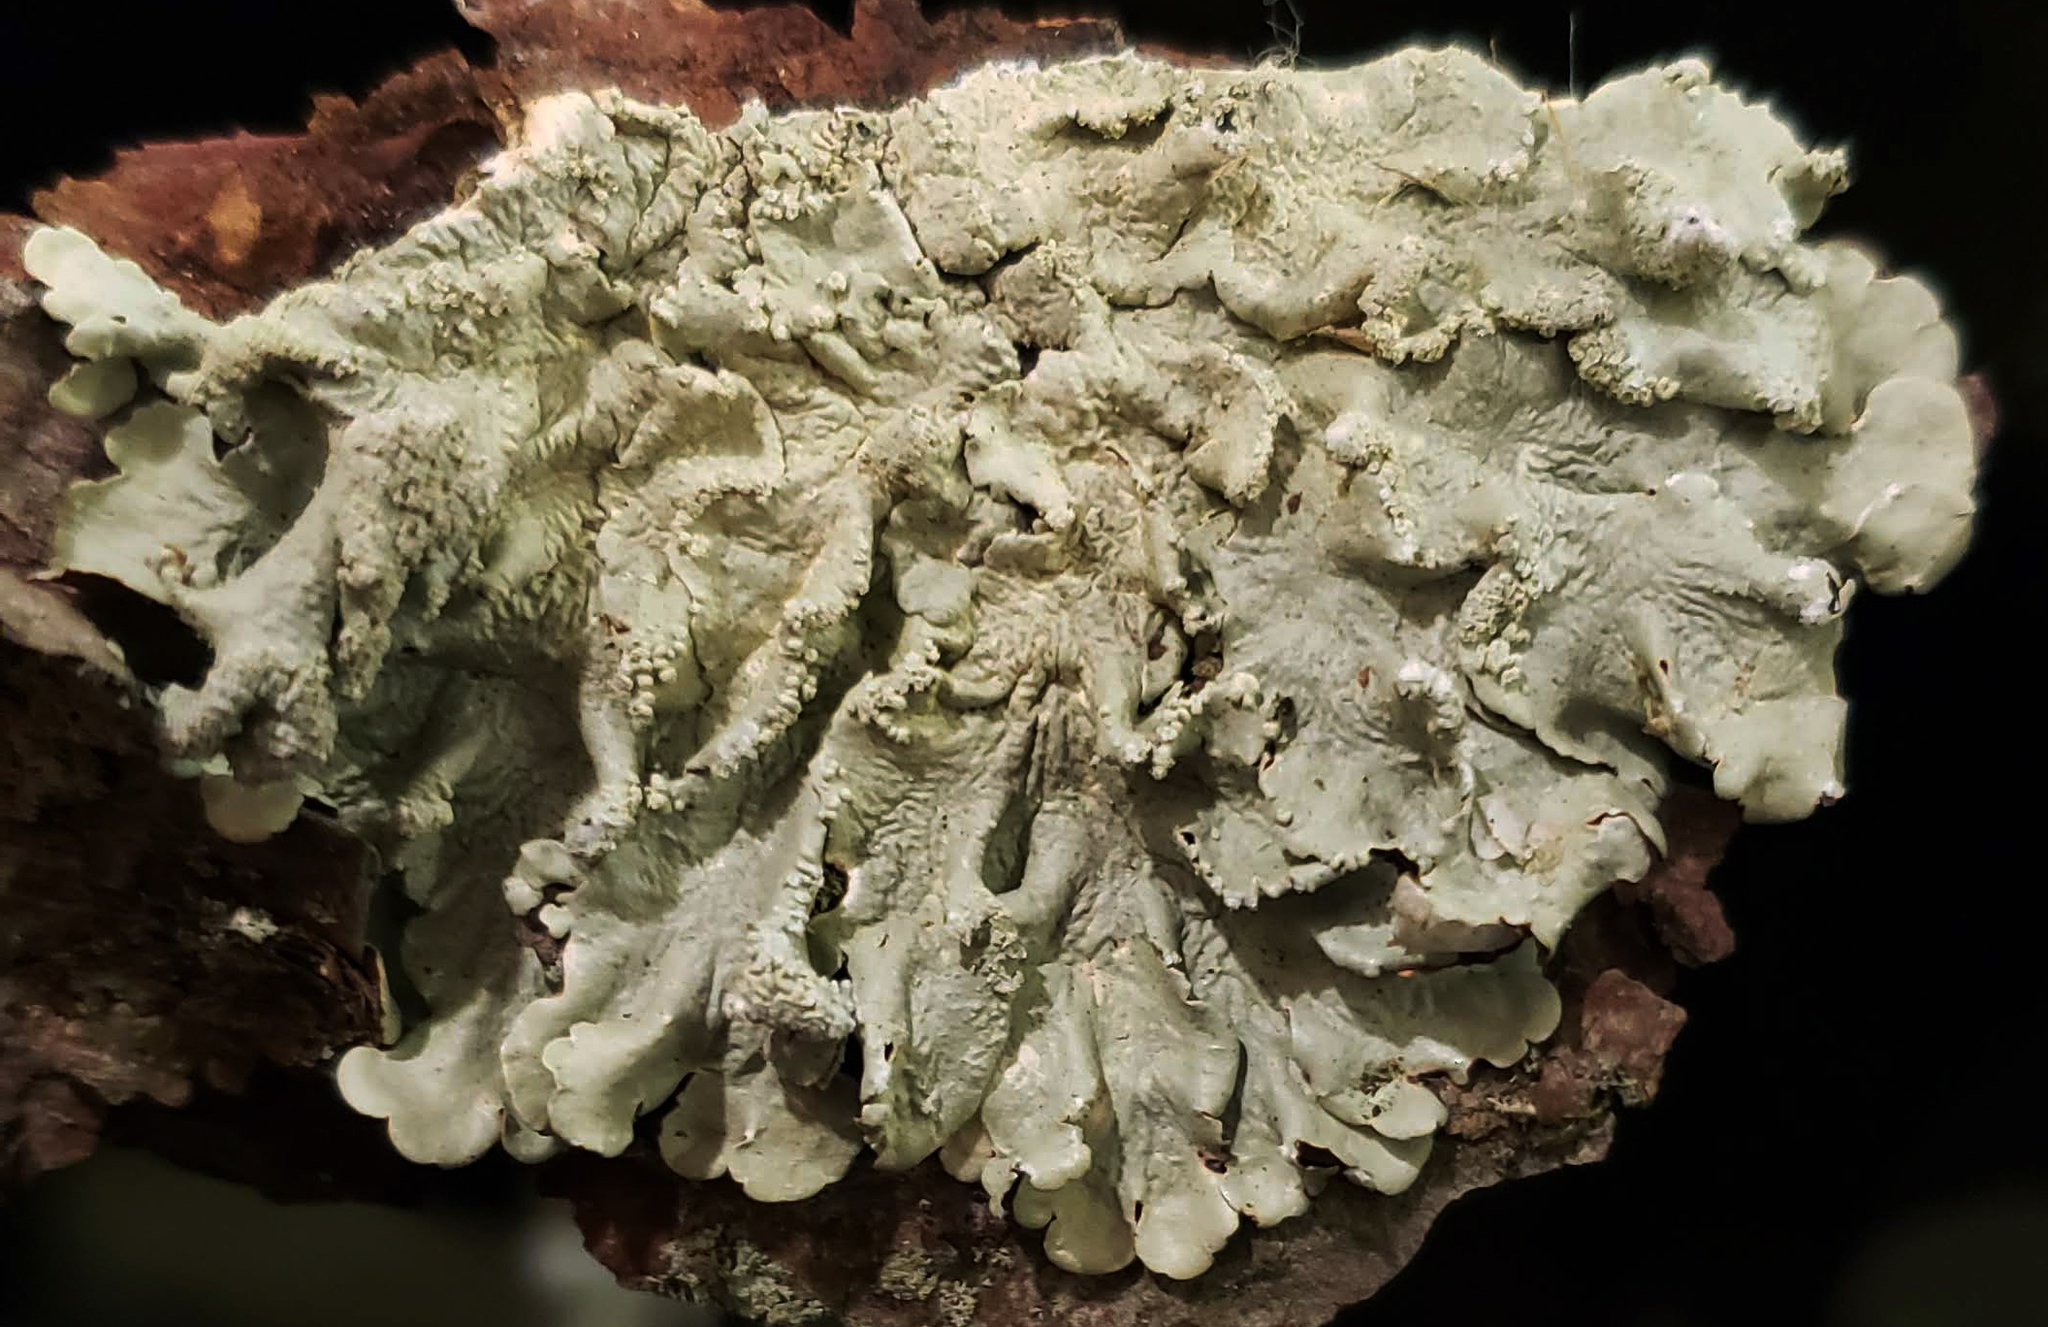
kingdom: Fungi
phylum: Ascomycota
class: Lecanoromycetes
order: Lecanorales
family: Parmeliaceae
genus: Flavoparmelia
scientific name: Flavoparmelia caperata
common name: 40-mile per hour lichen
